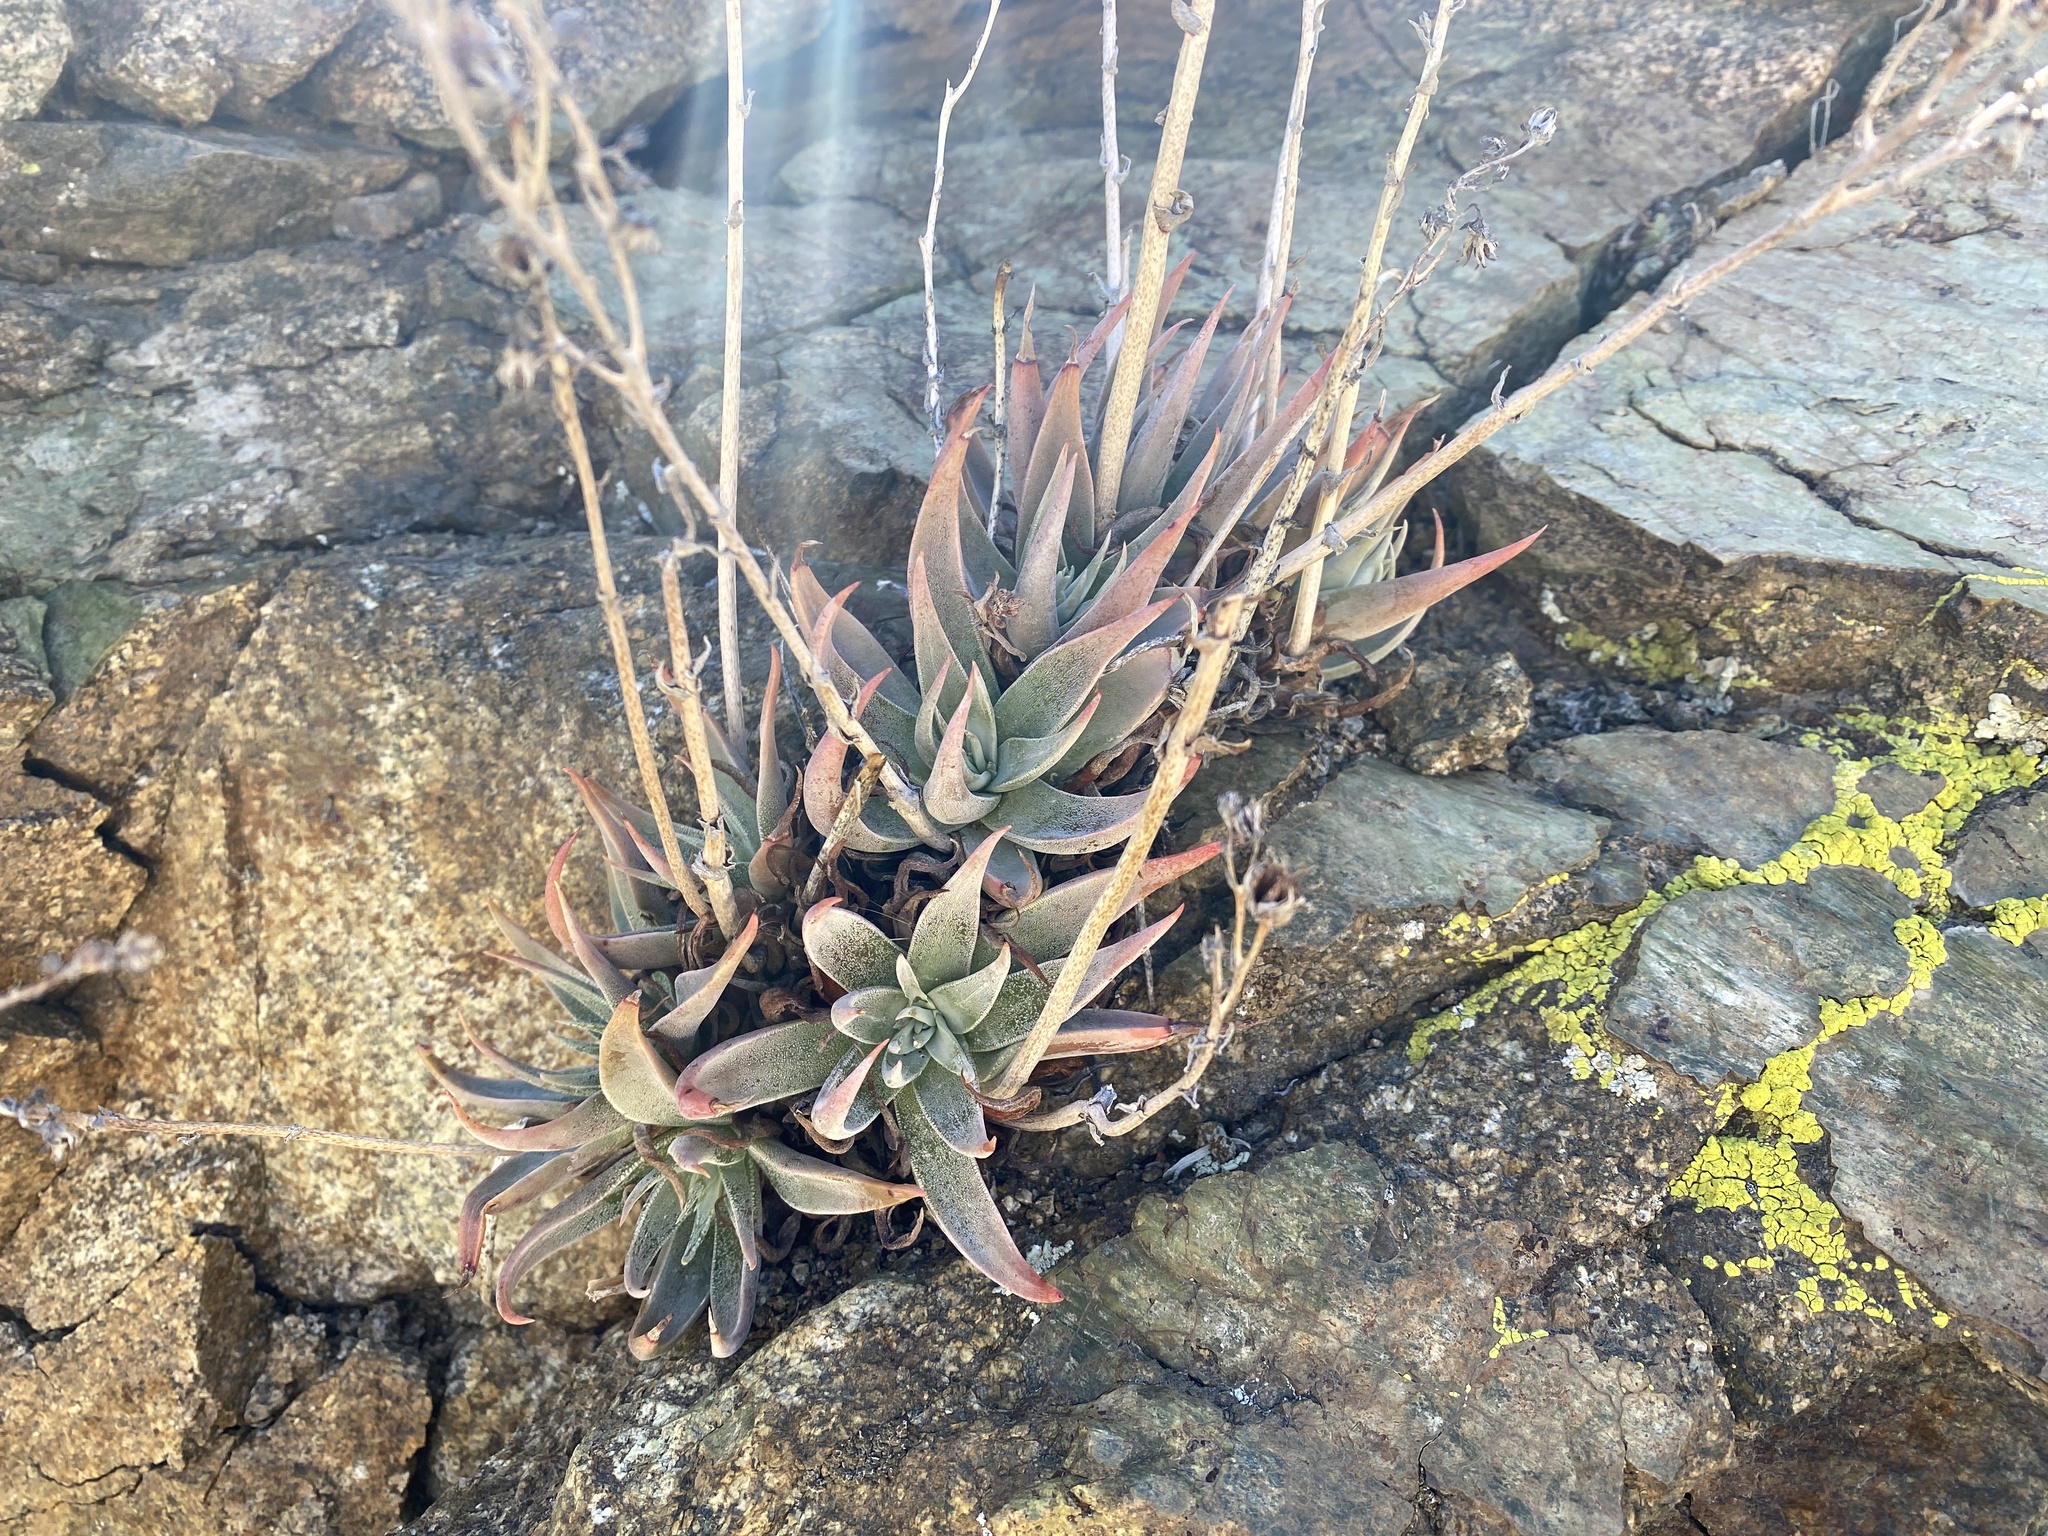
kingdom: Plantae
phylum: Tracheophyta
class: Magnoliopsida
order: Saxifragales
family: Crassulaceae
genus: Dudleya
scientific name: Dudleya saxosa
